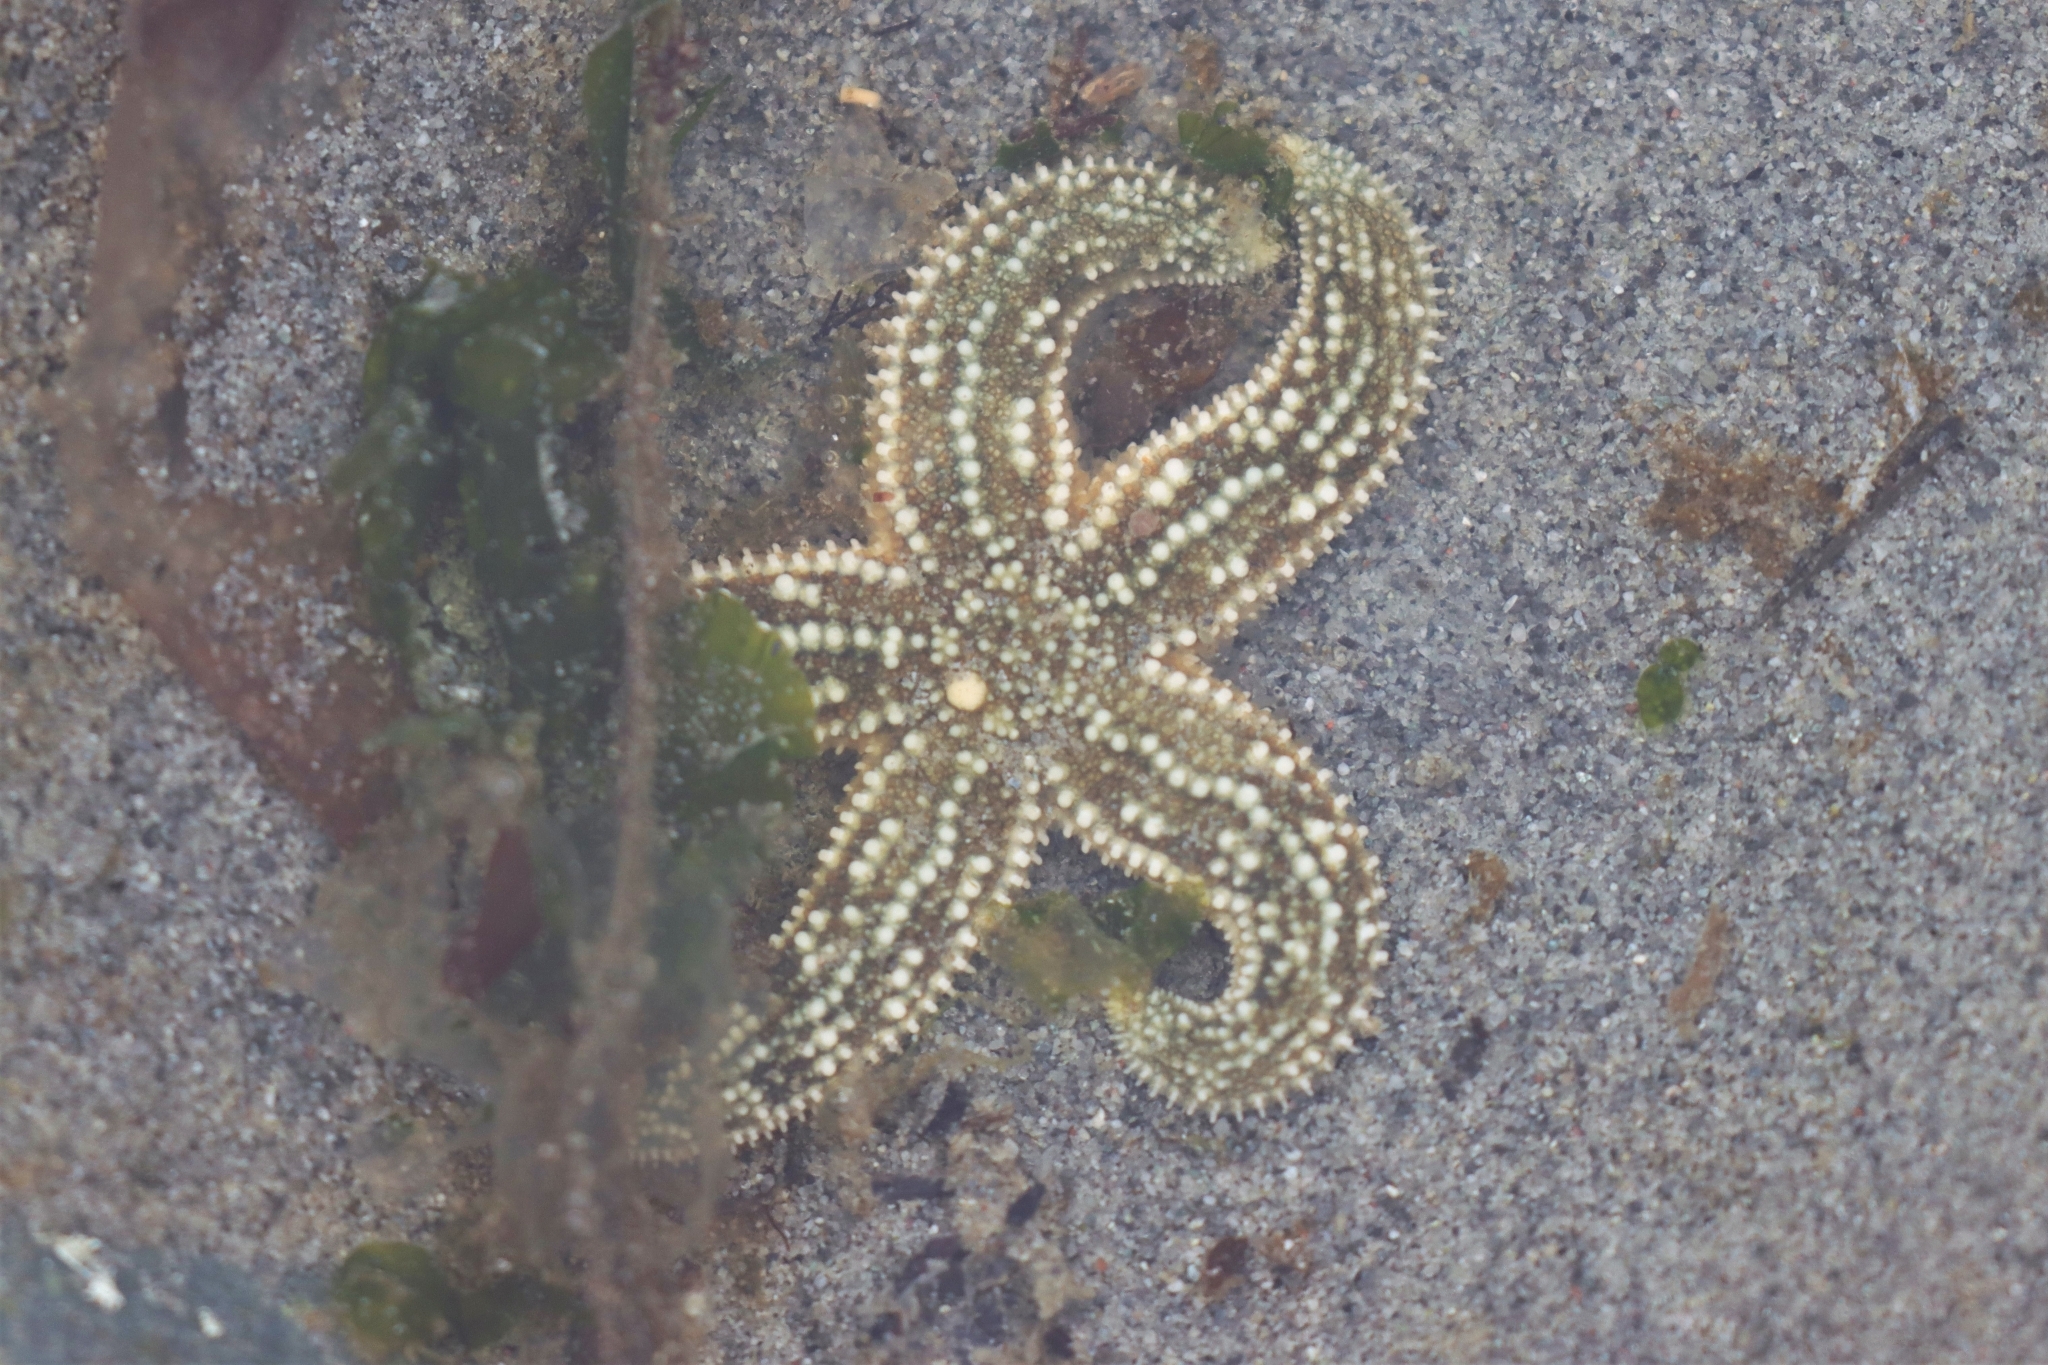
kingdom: Animalia
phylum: Echinodermata
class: Asteroidea
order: Forcipulatida
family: Asteriidae
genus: Evasterias
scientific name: Evasterias troschelii
